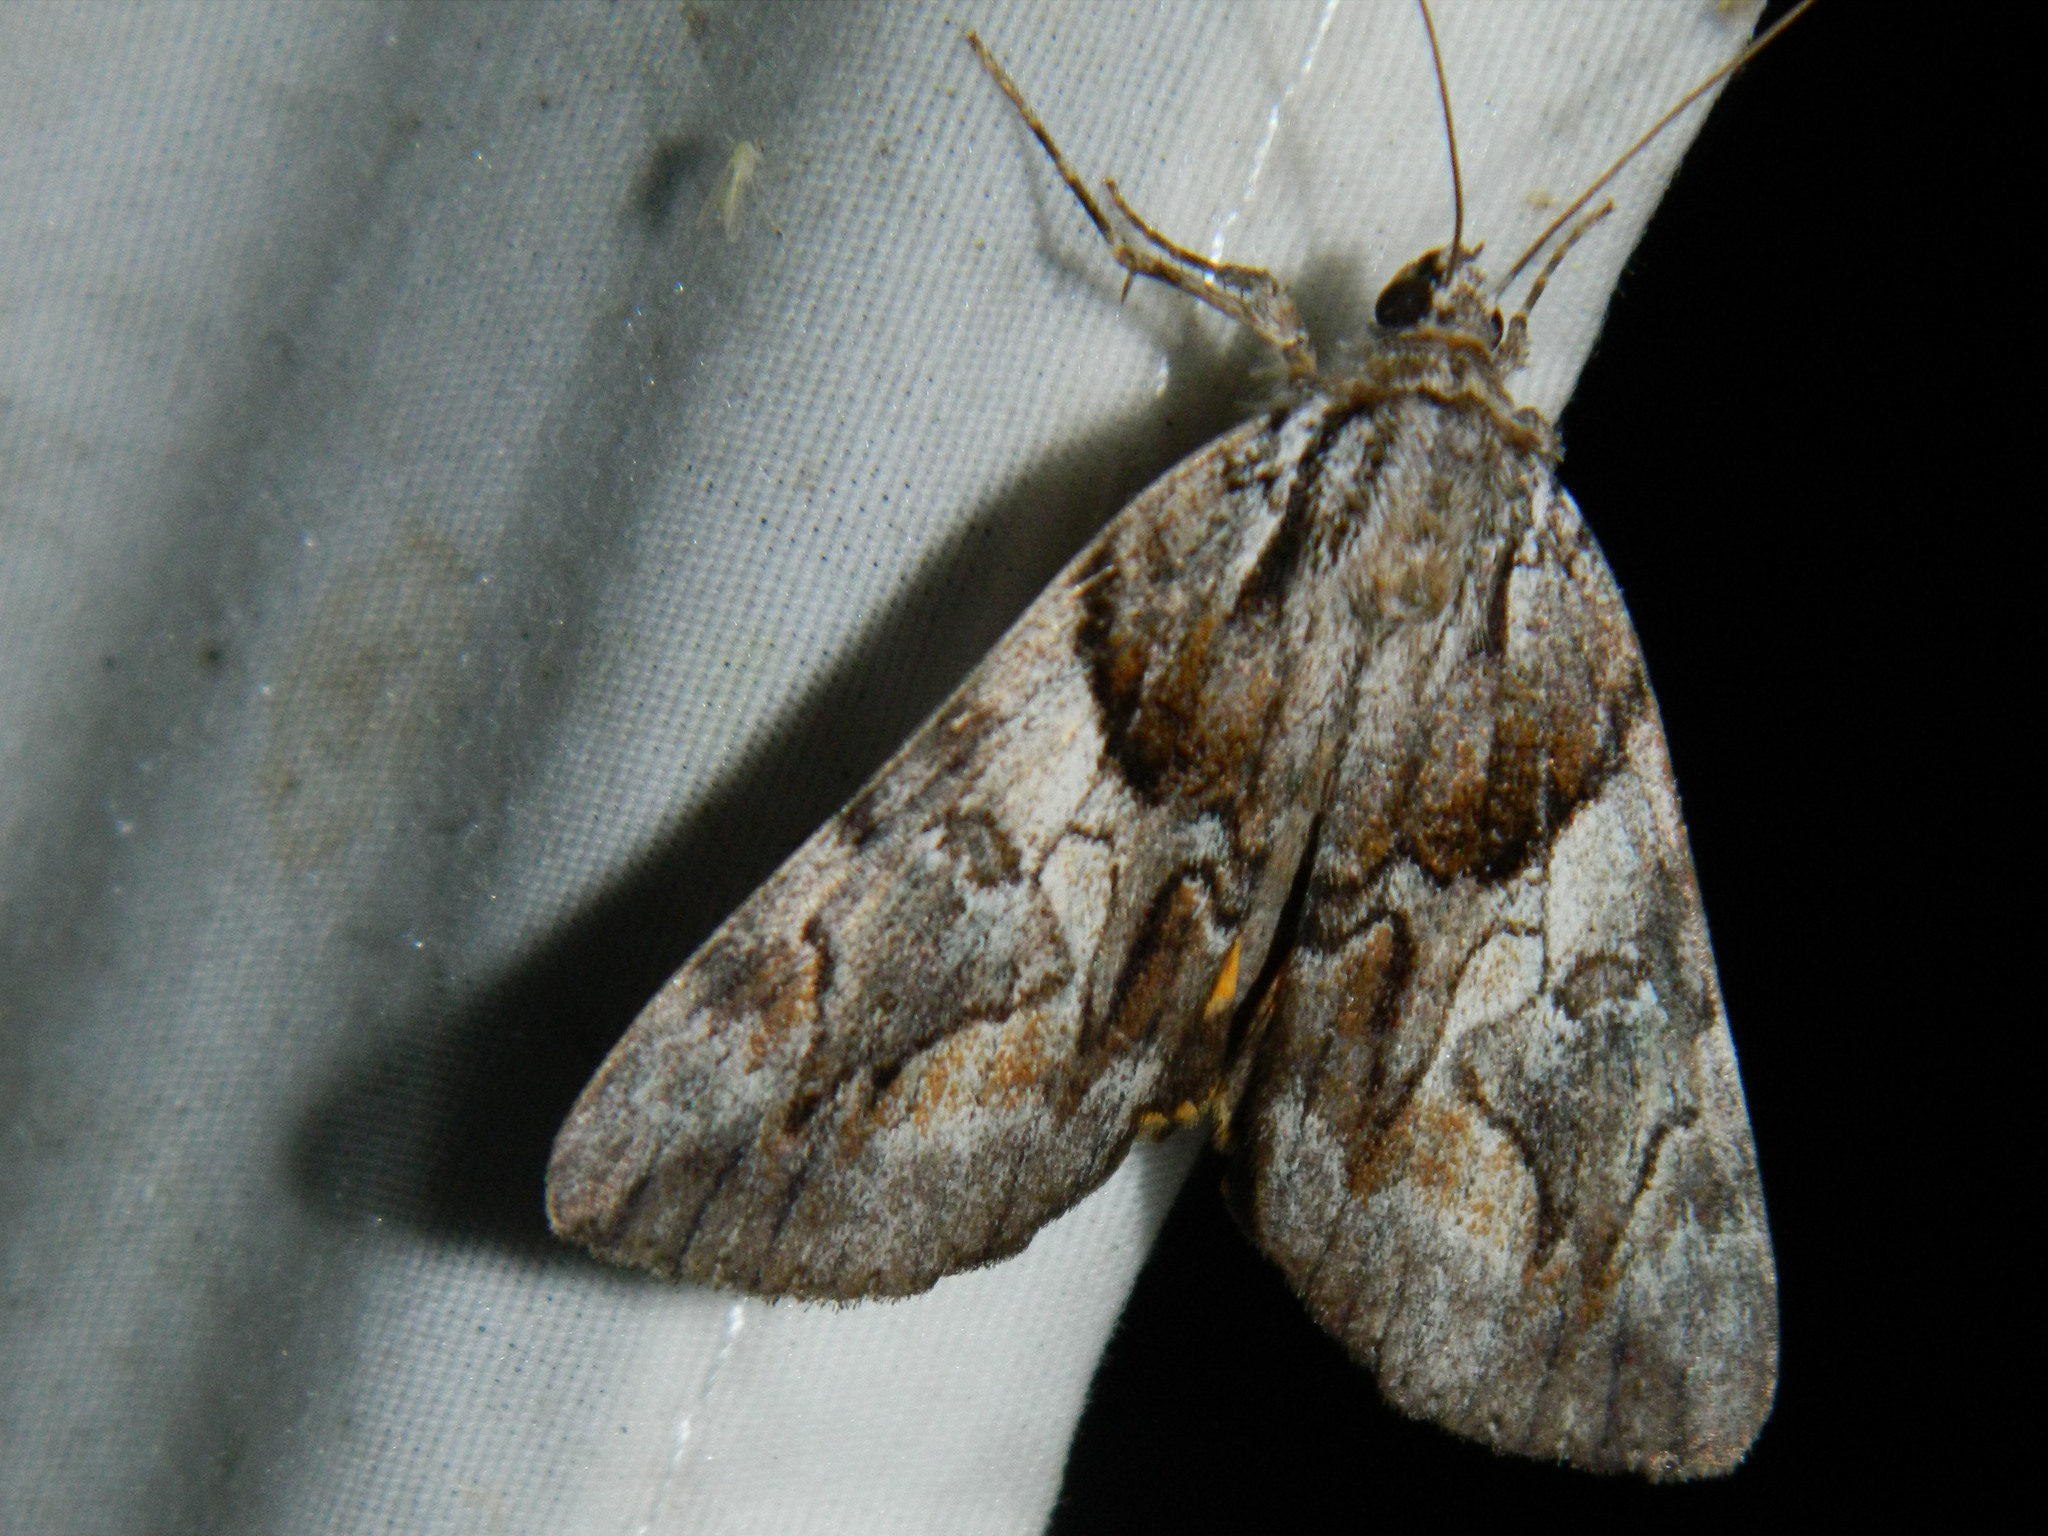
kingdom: Animalia
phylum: Arthropoda
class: Insecta
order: Lepidoptera
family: Erebidae
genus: Catocala
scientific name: Catocala blandula
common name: Charming underwing
